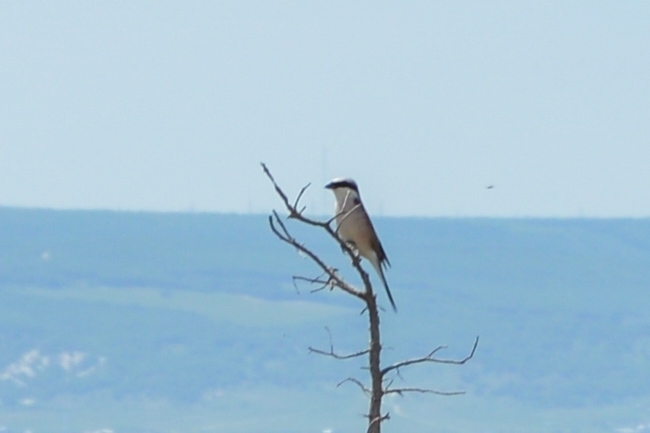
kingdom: Animalia
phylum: Chordata
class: Aves
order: Passeriformes
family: Laniidae
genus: Lanius
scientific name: Lanius collurio
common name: Red-backed shrike
